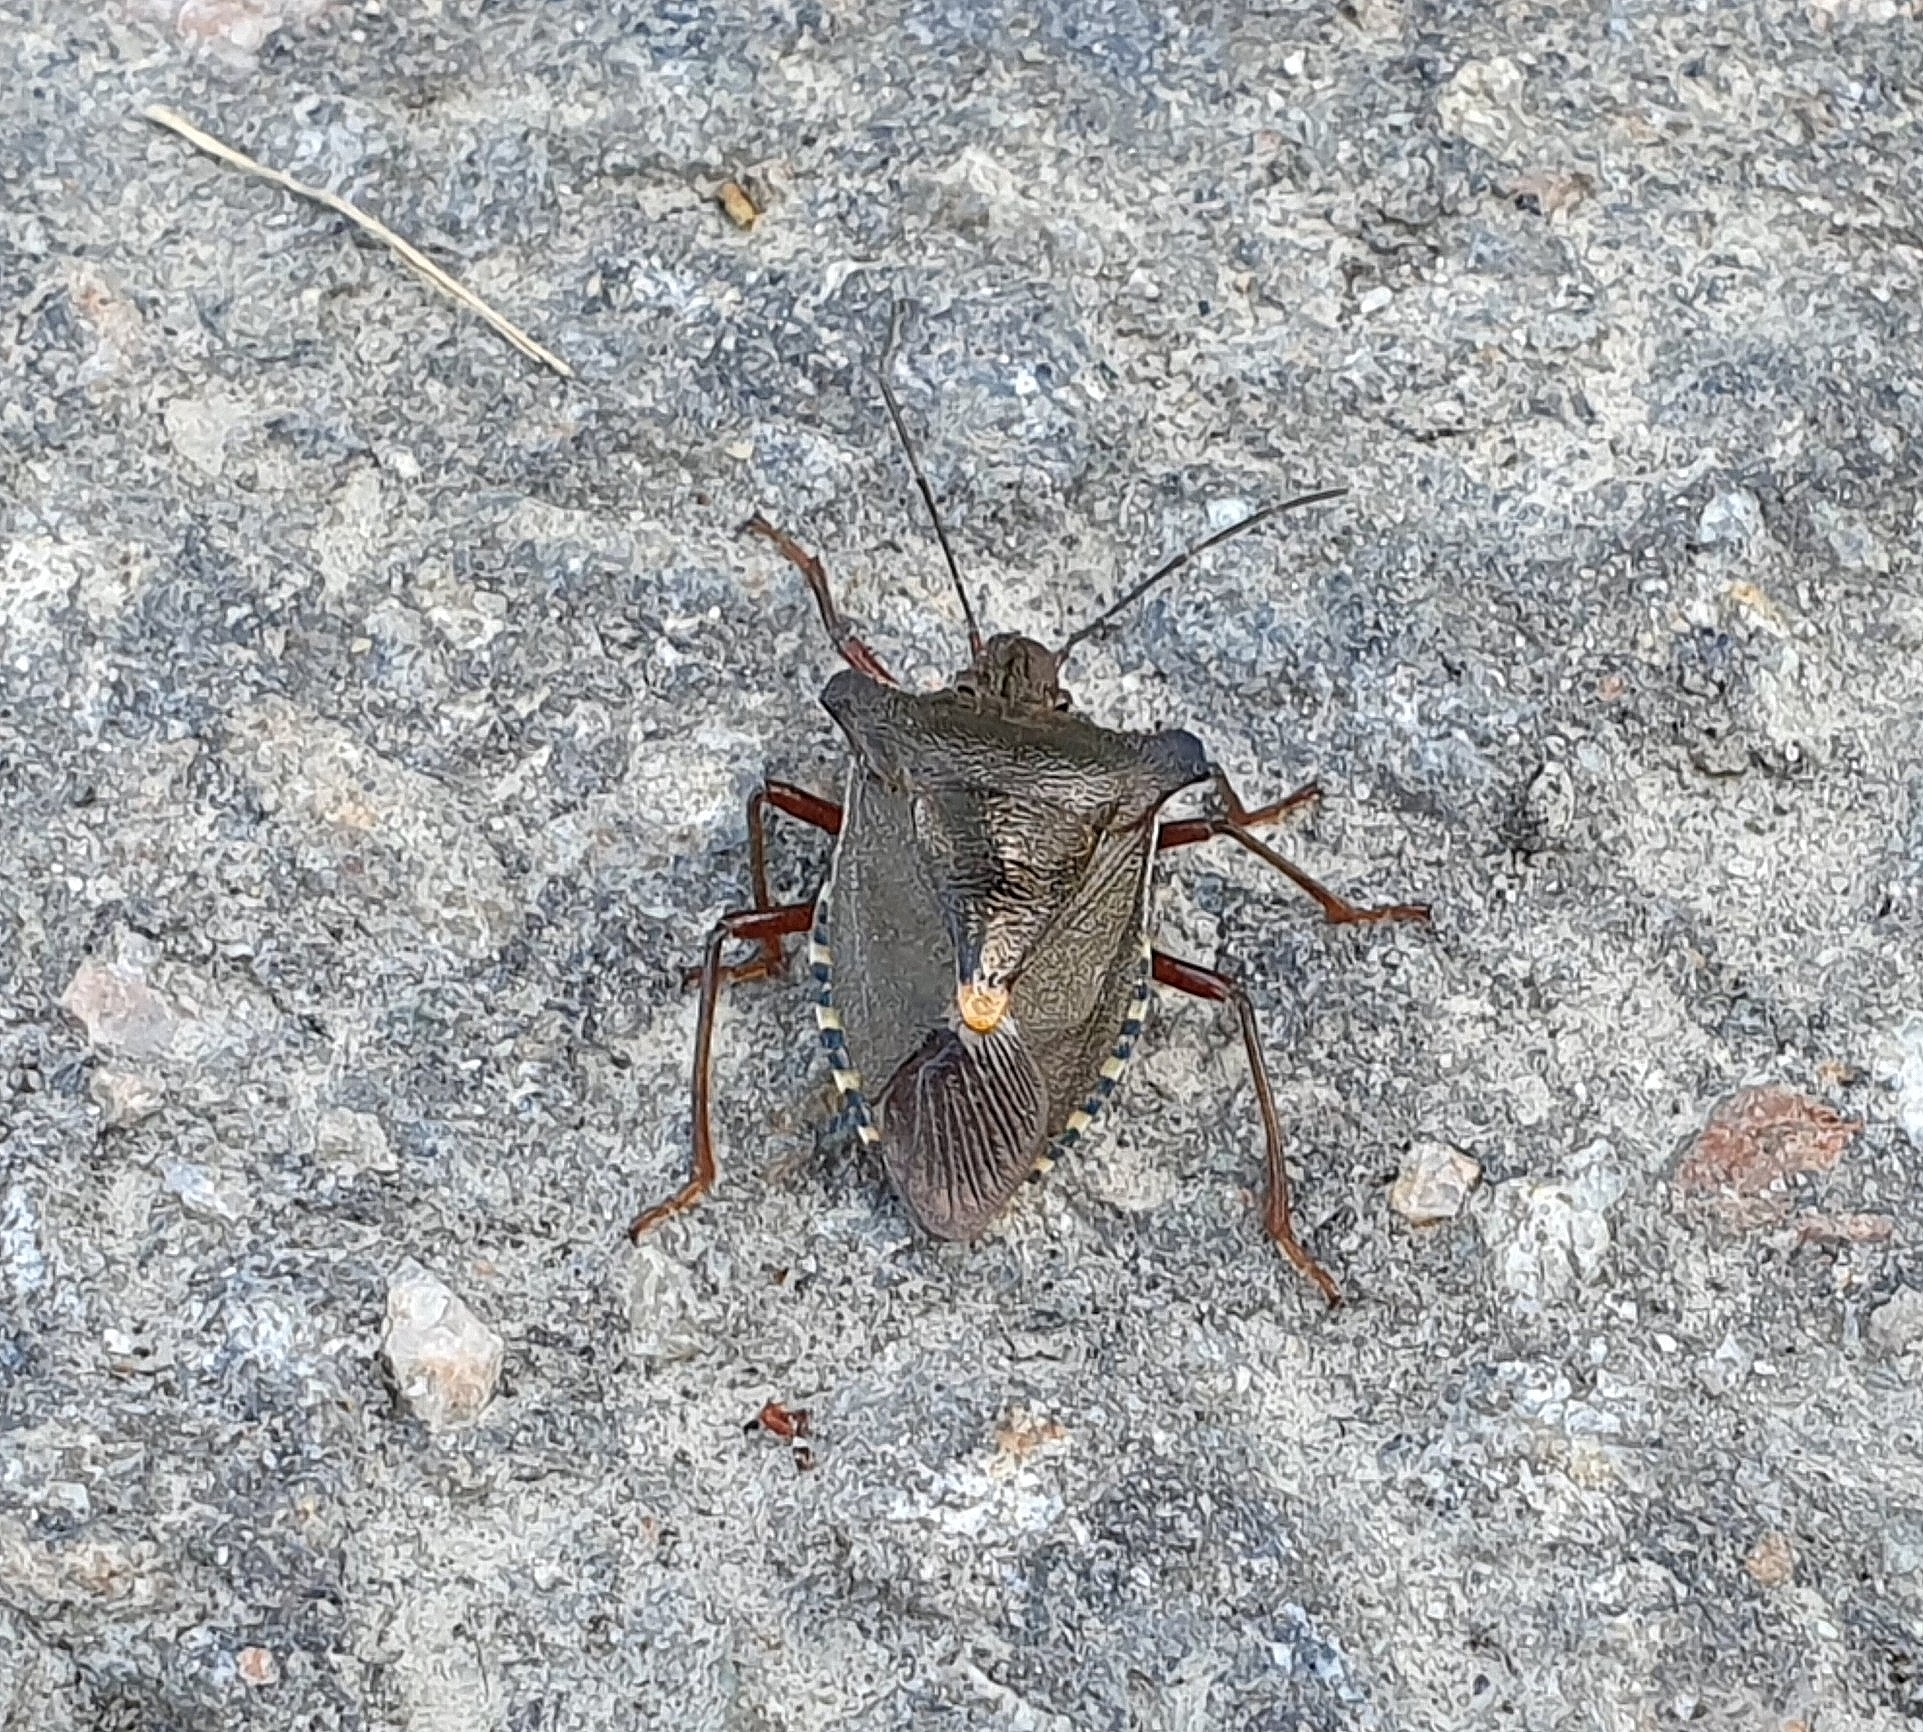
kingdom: Animalia
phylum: Arthropoda
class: Insecta
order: Hemiptera
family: Pentatomidae
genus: Pentatoma
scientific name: Pentatoma rufipes
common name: Forest bug
